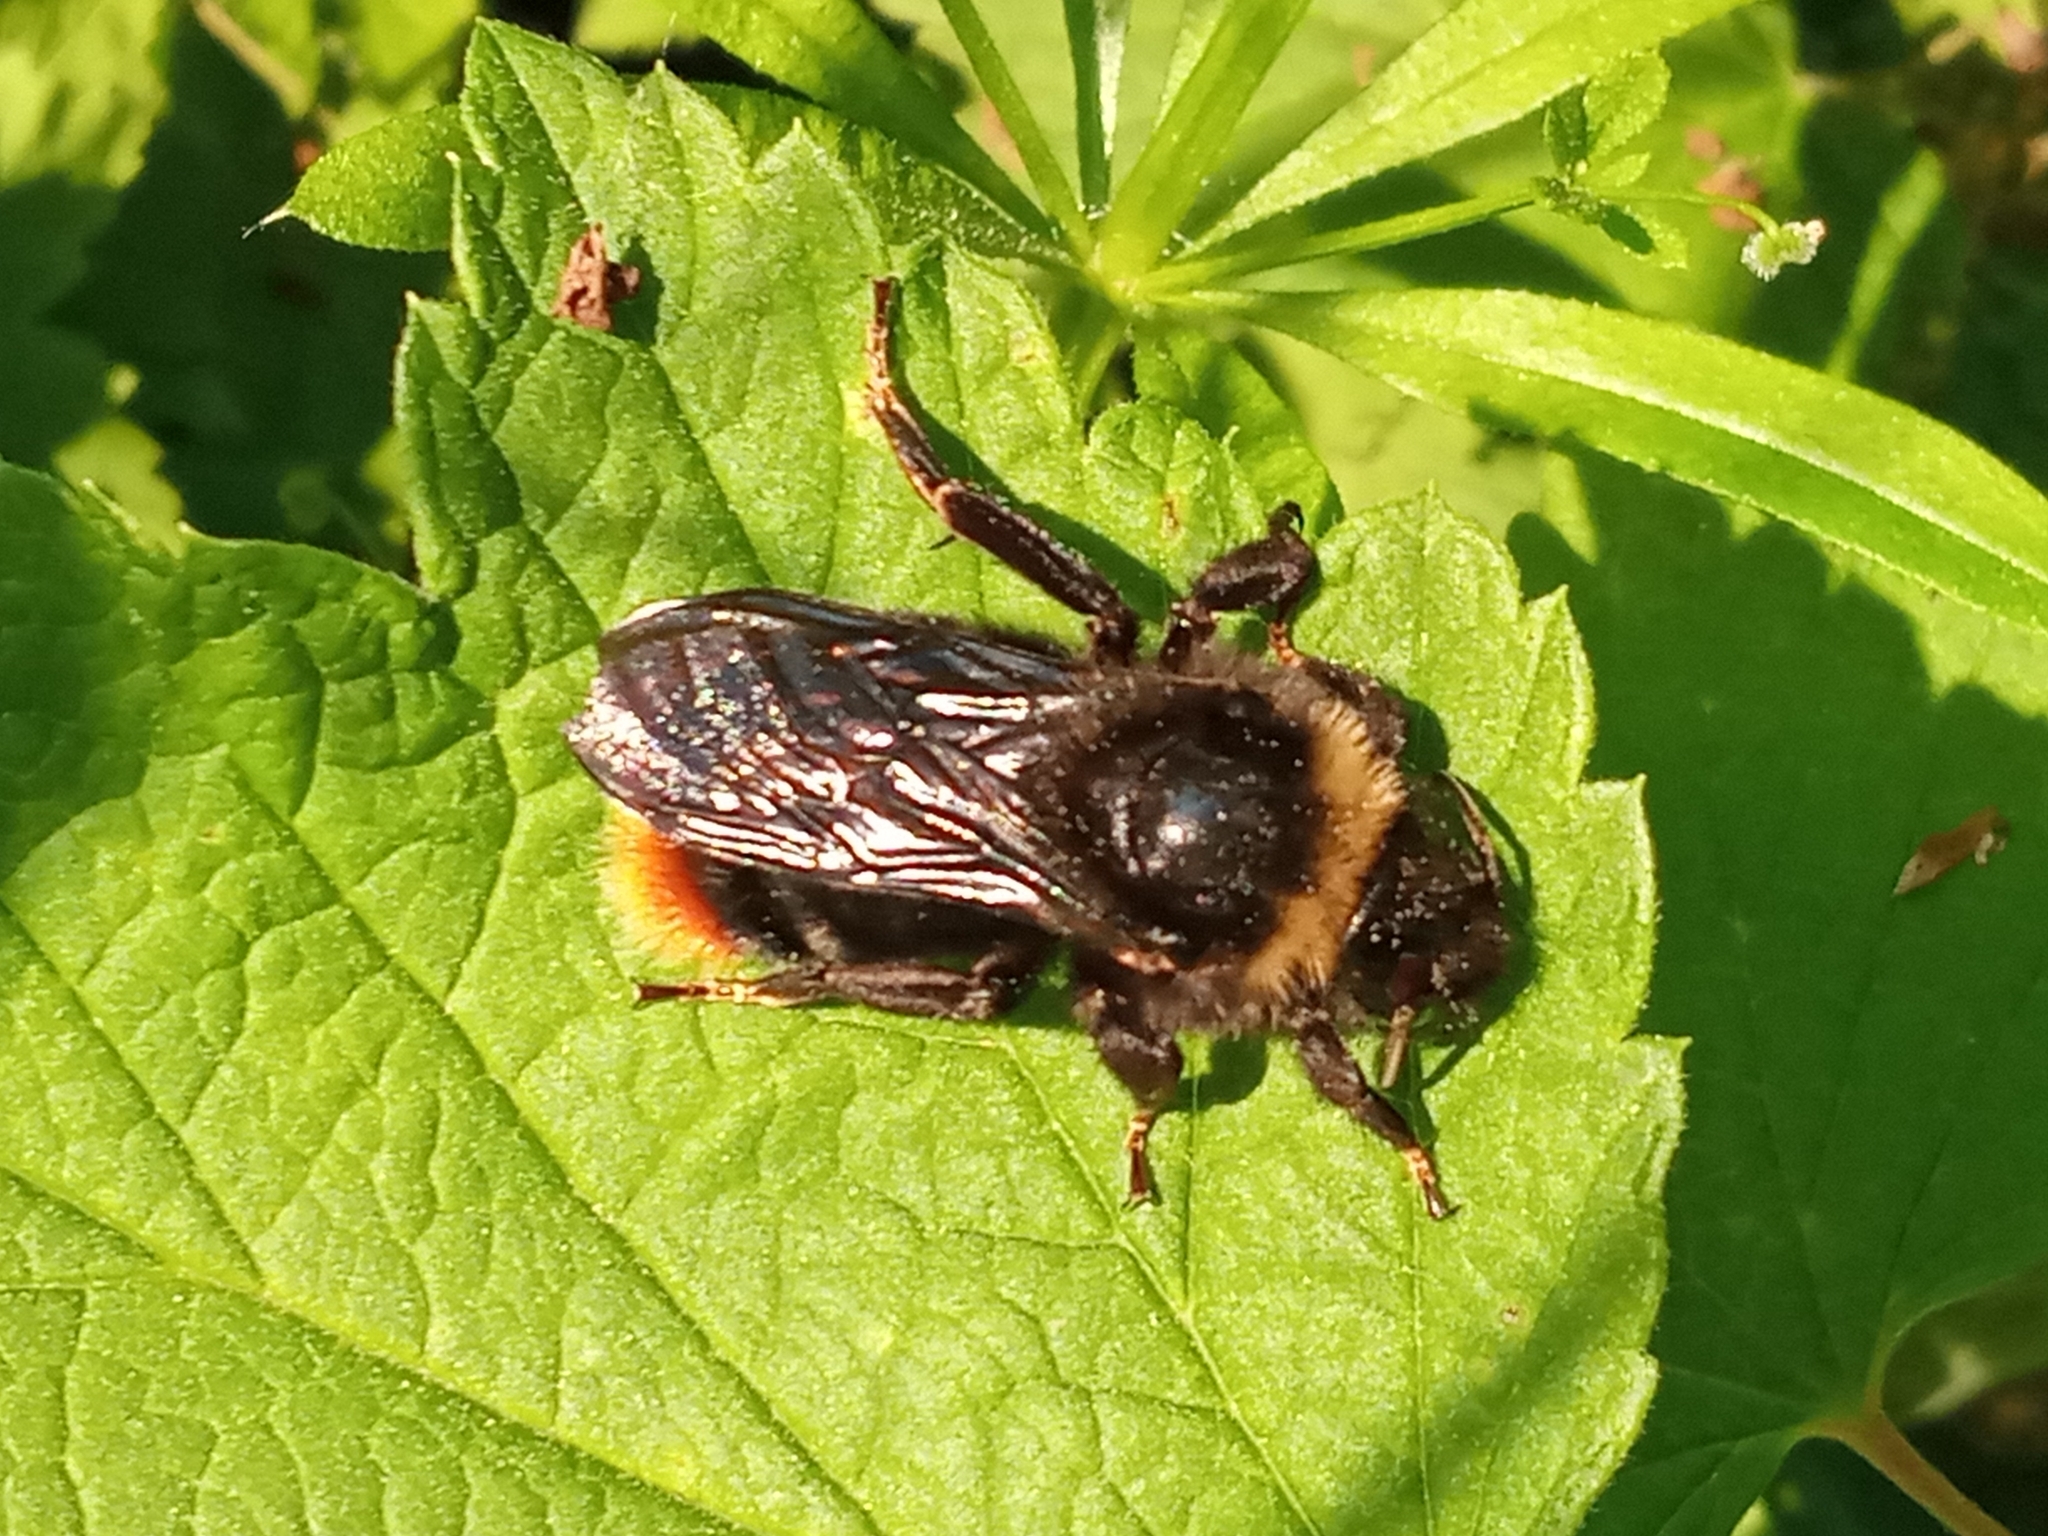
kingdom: Animalia
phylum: Arthropoda
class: Insecta
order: Hymenoptera
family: Apidae
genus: Bombus
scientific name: Bombus rupestris
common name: Hill cuckoo-bee
